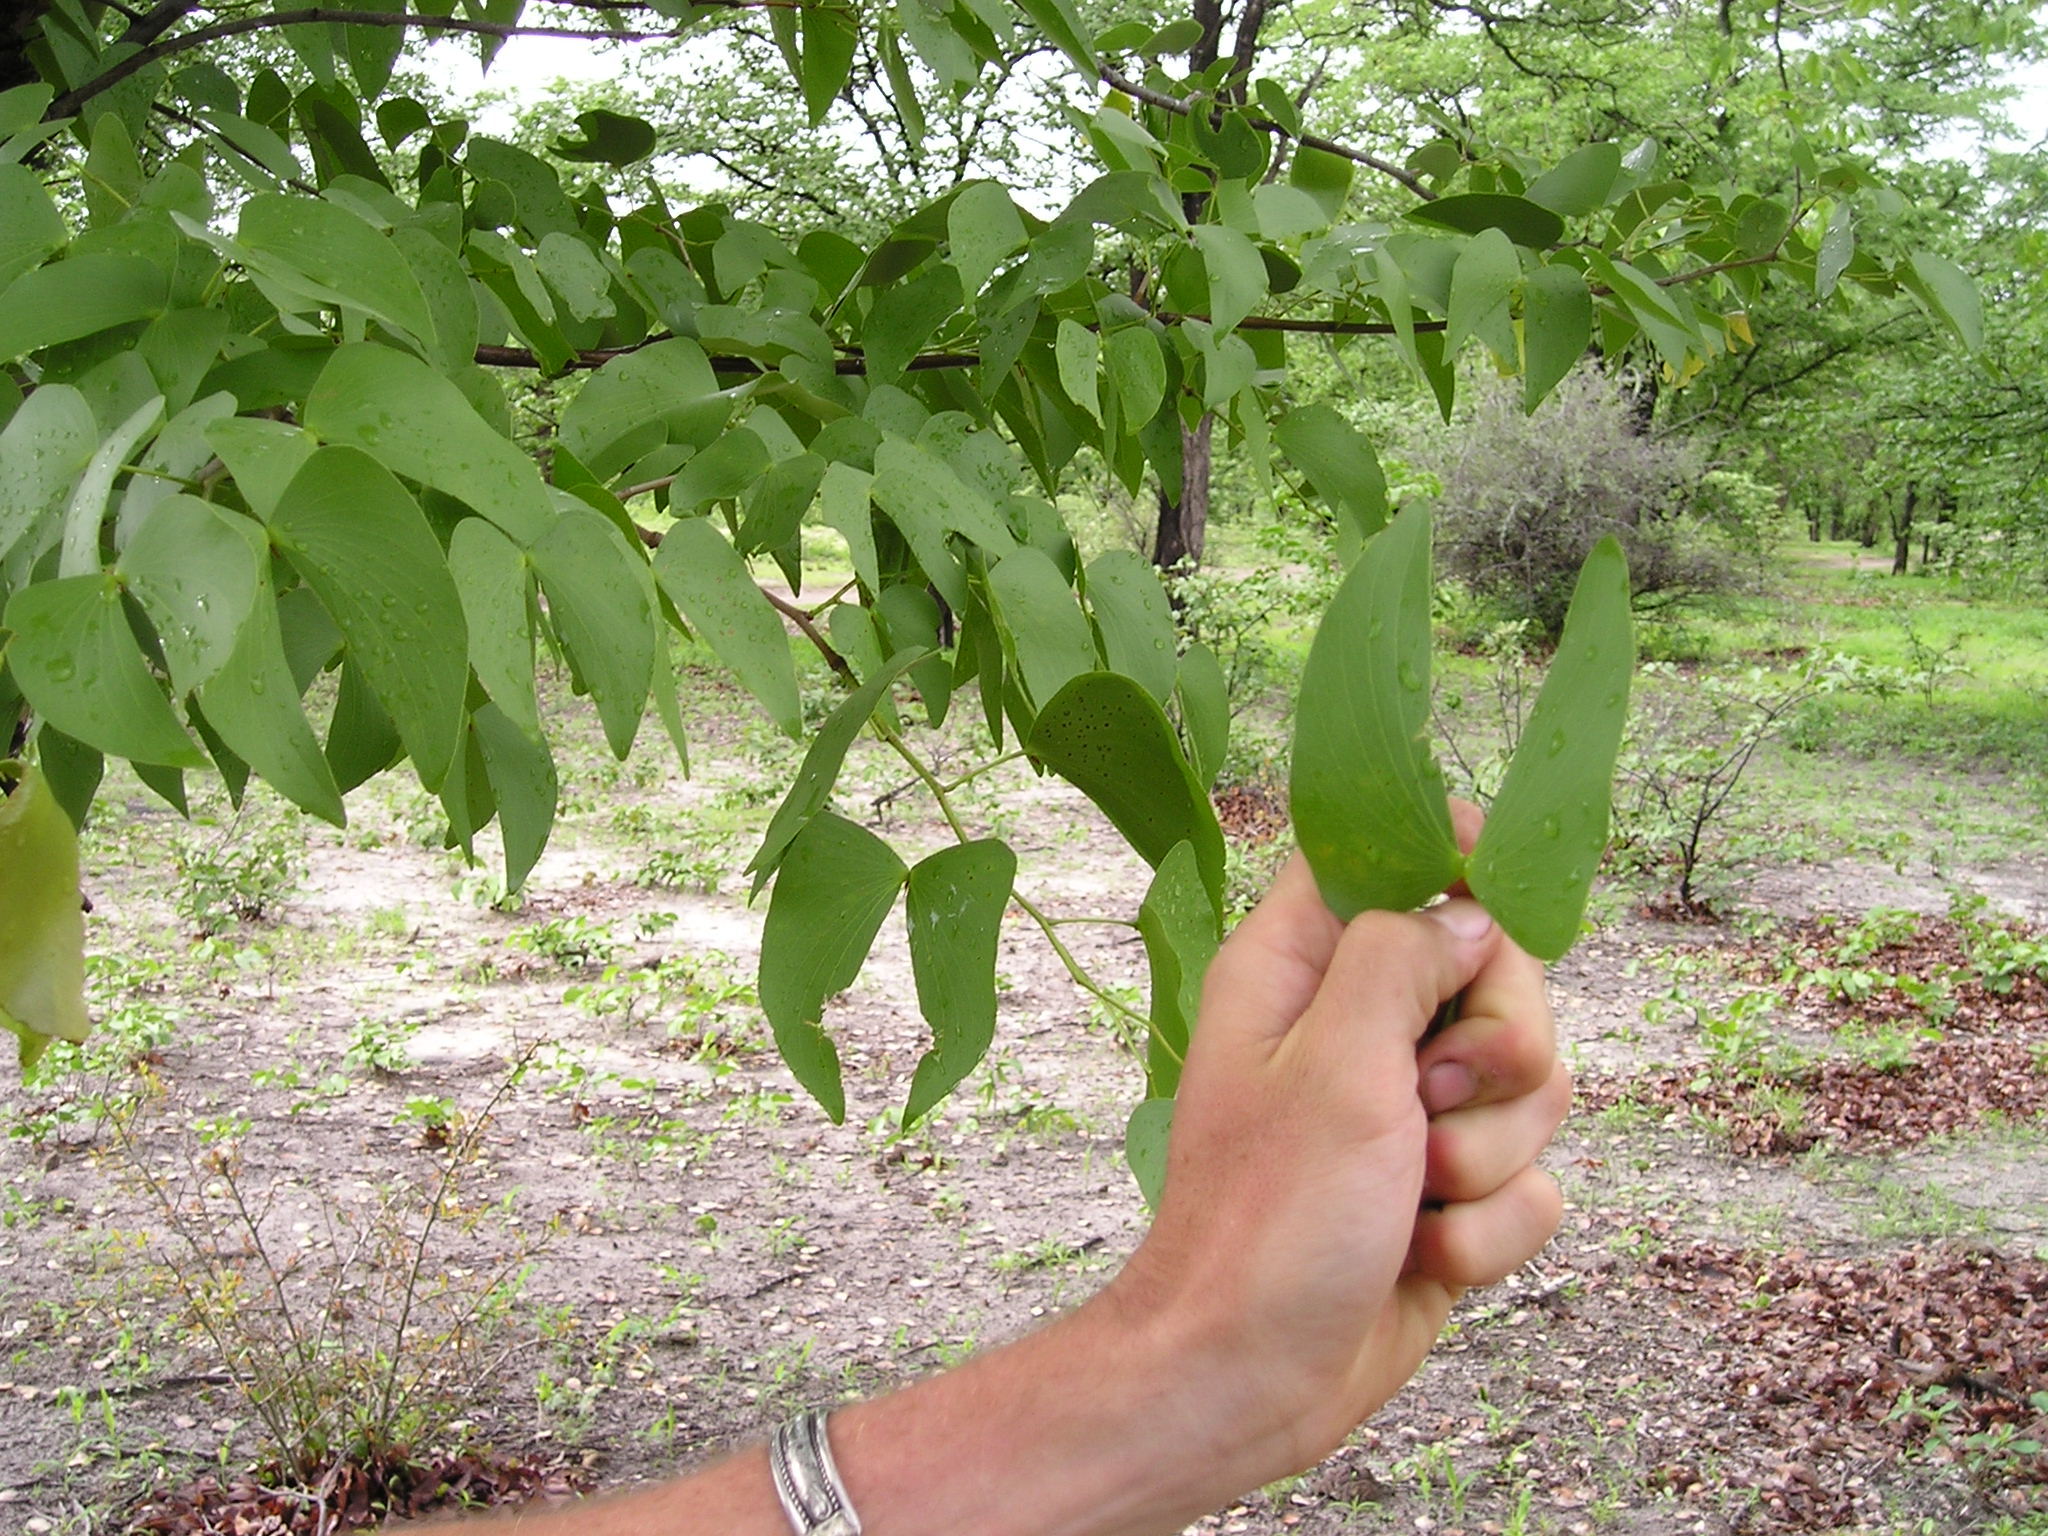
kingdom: Plantae
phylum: Tracheophyta
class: Magnoliopsida
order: Fabales
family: Fabaceae
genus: Colophospermum
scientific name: Colophospermum mopane
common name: Mopane
